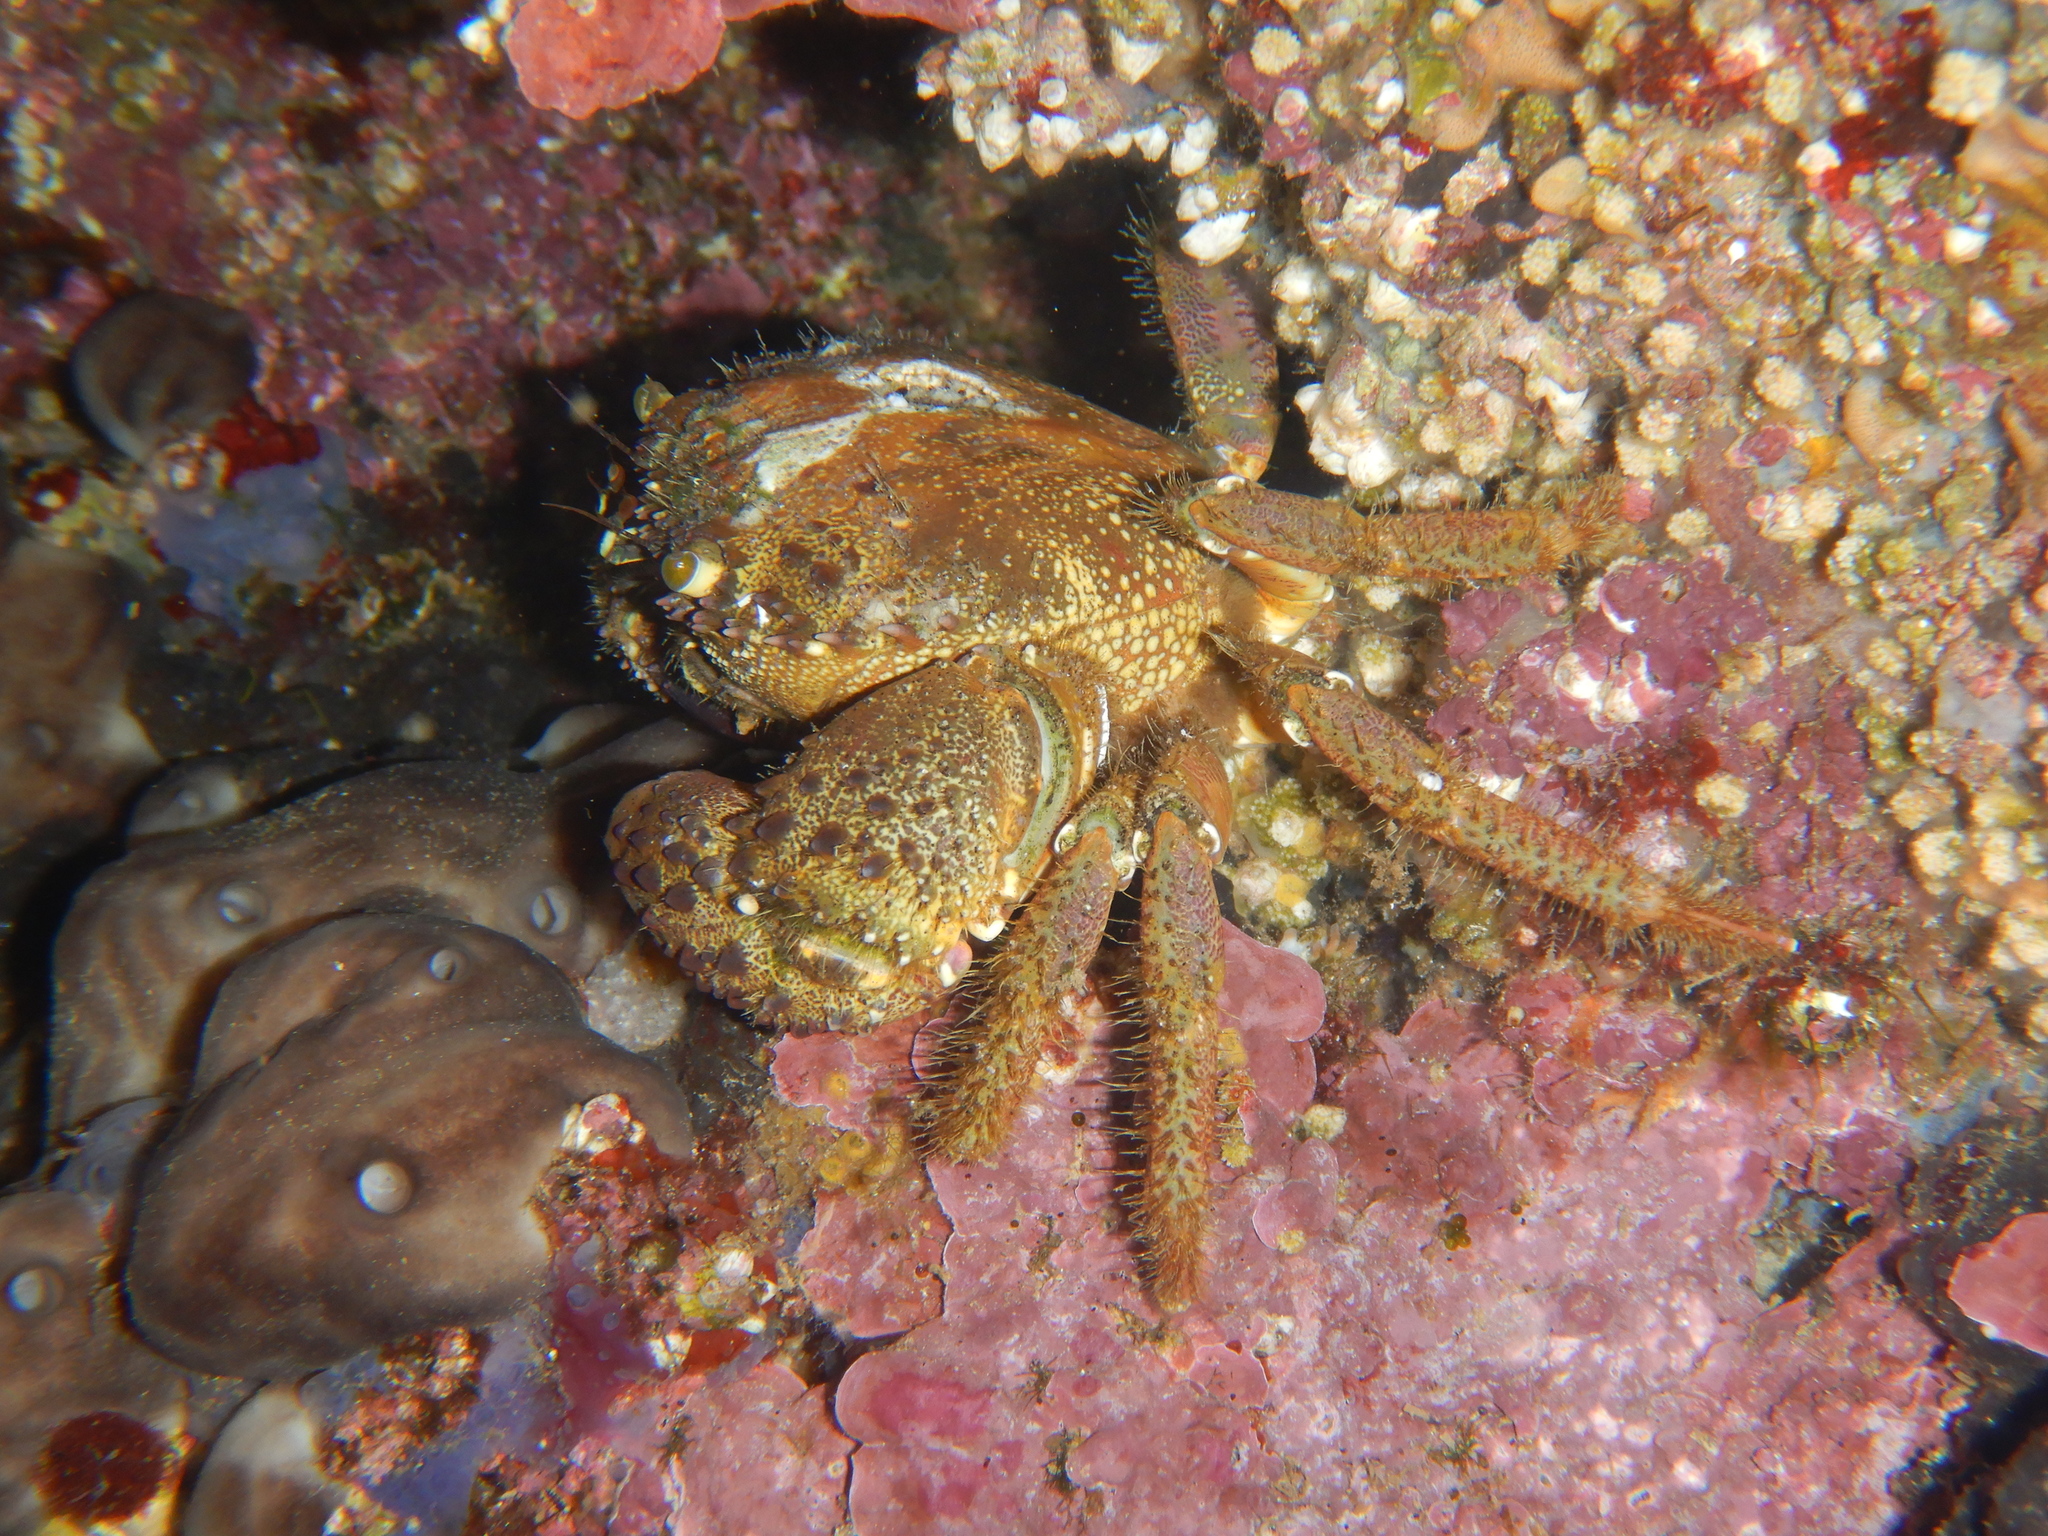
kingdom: Animalia
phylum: Arthropoda
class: Malacostraca
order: Decapoda
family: Eriphiidae
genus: Eriphia
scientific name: Eriphia verrucosa
